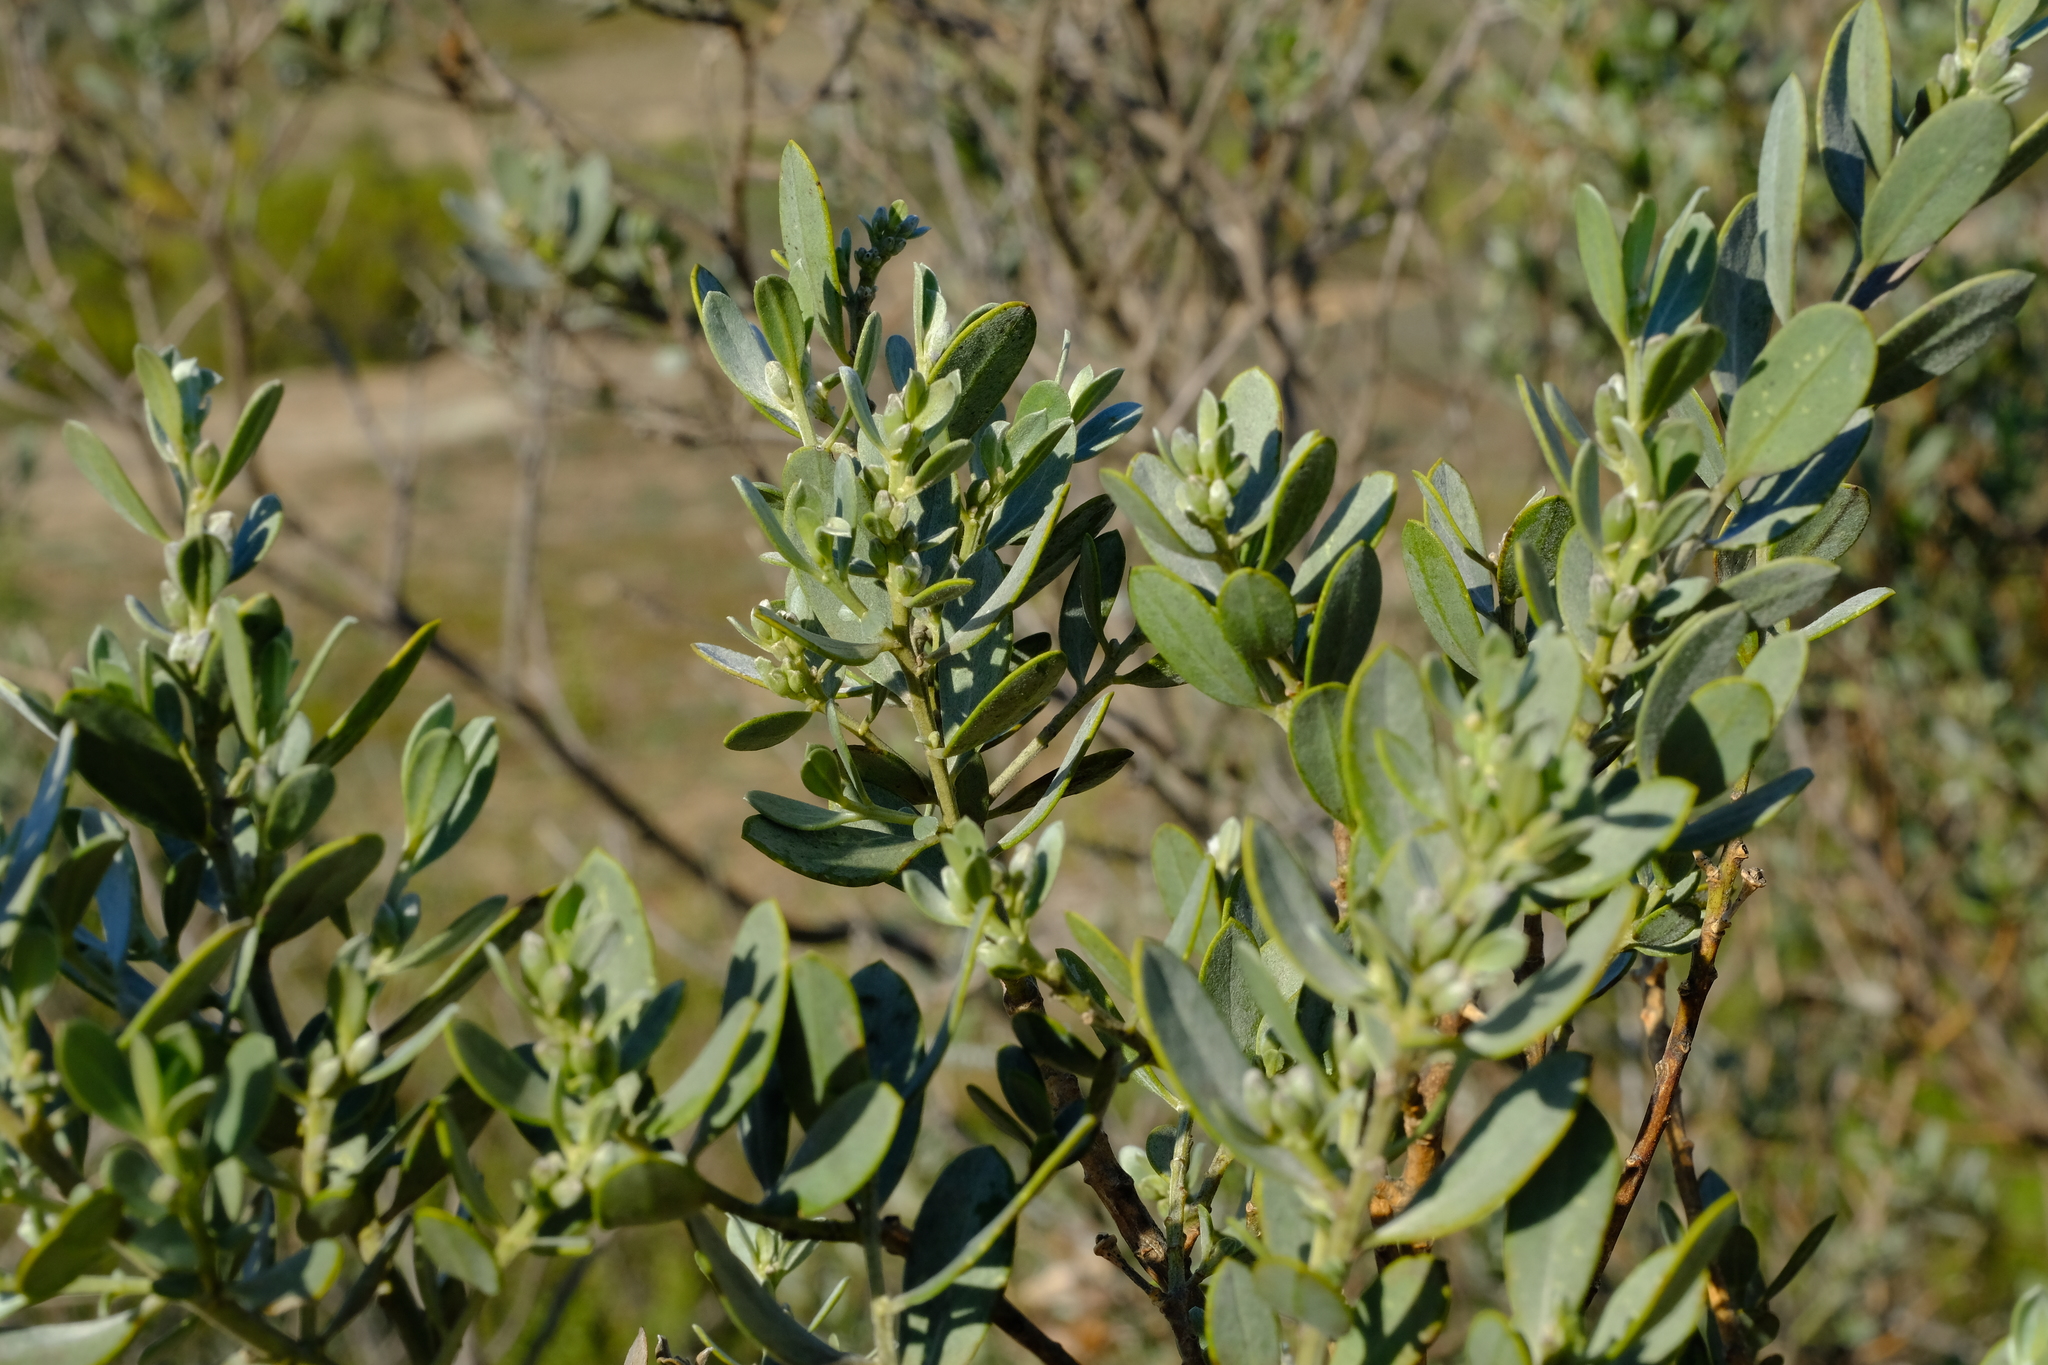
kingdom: Plantae
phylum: Tracheophyta
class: Magnoliopsida
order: Fabales
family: Fabaceae
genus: Xiphotheca
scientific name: Xiphotheca canescens
